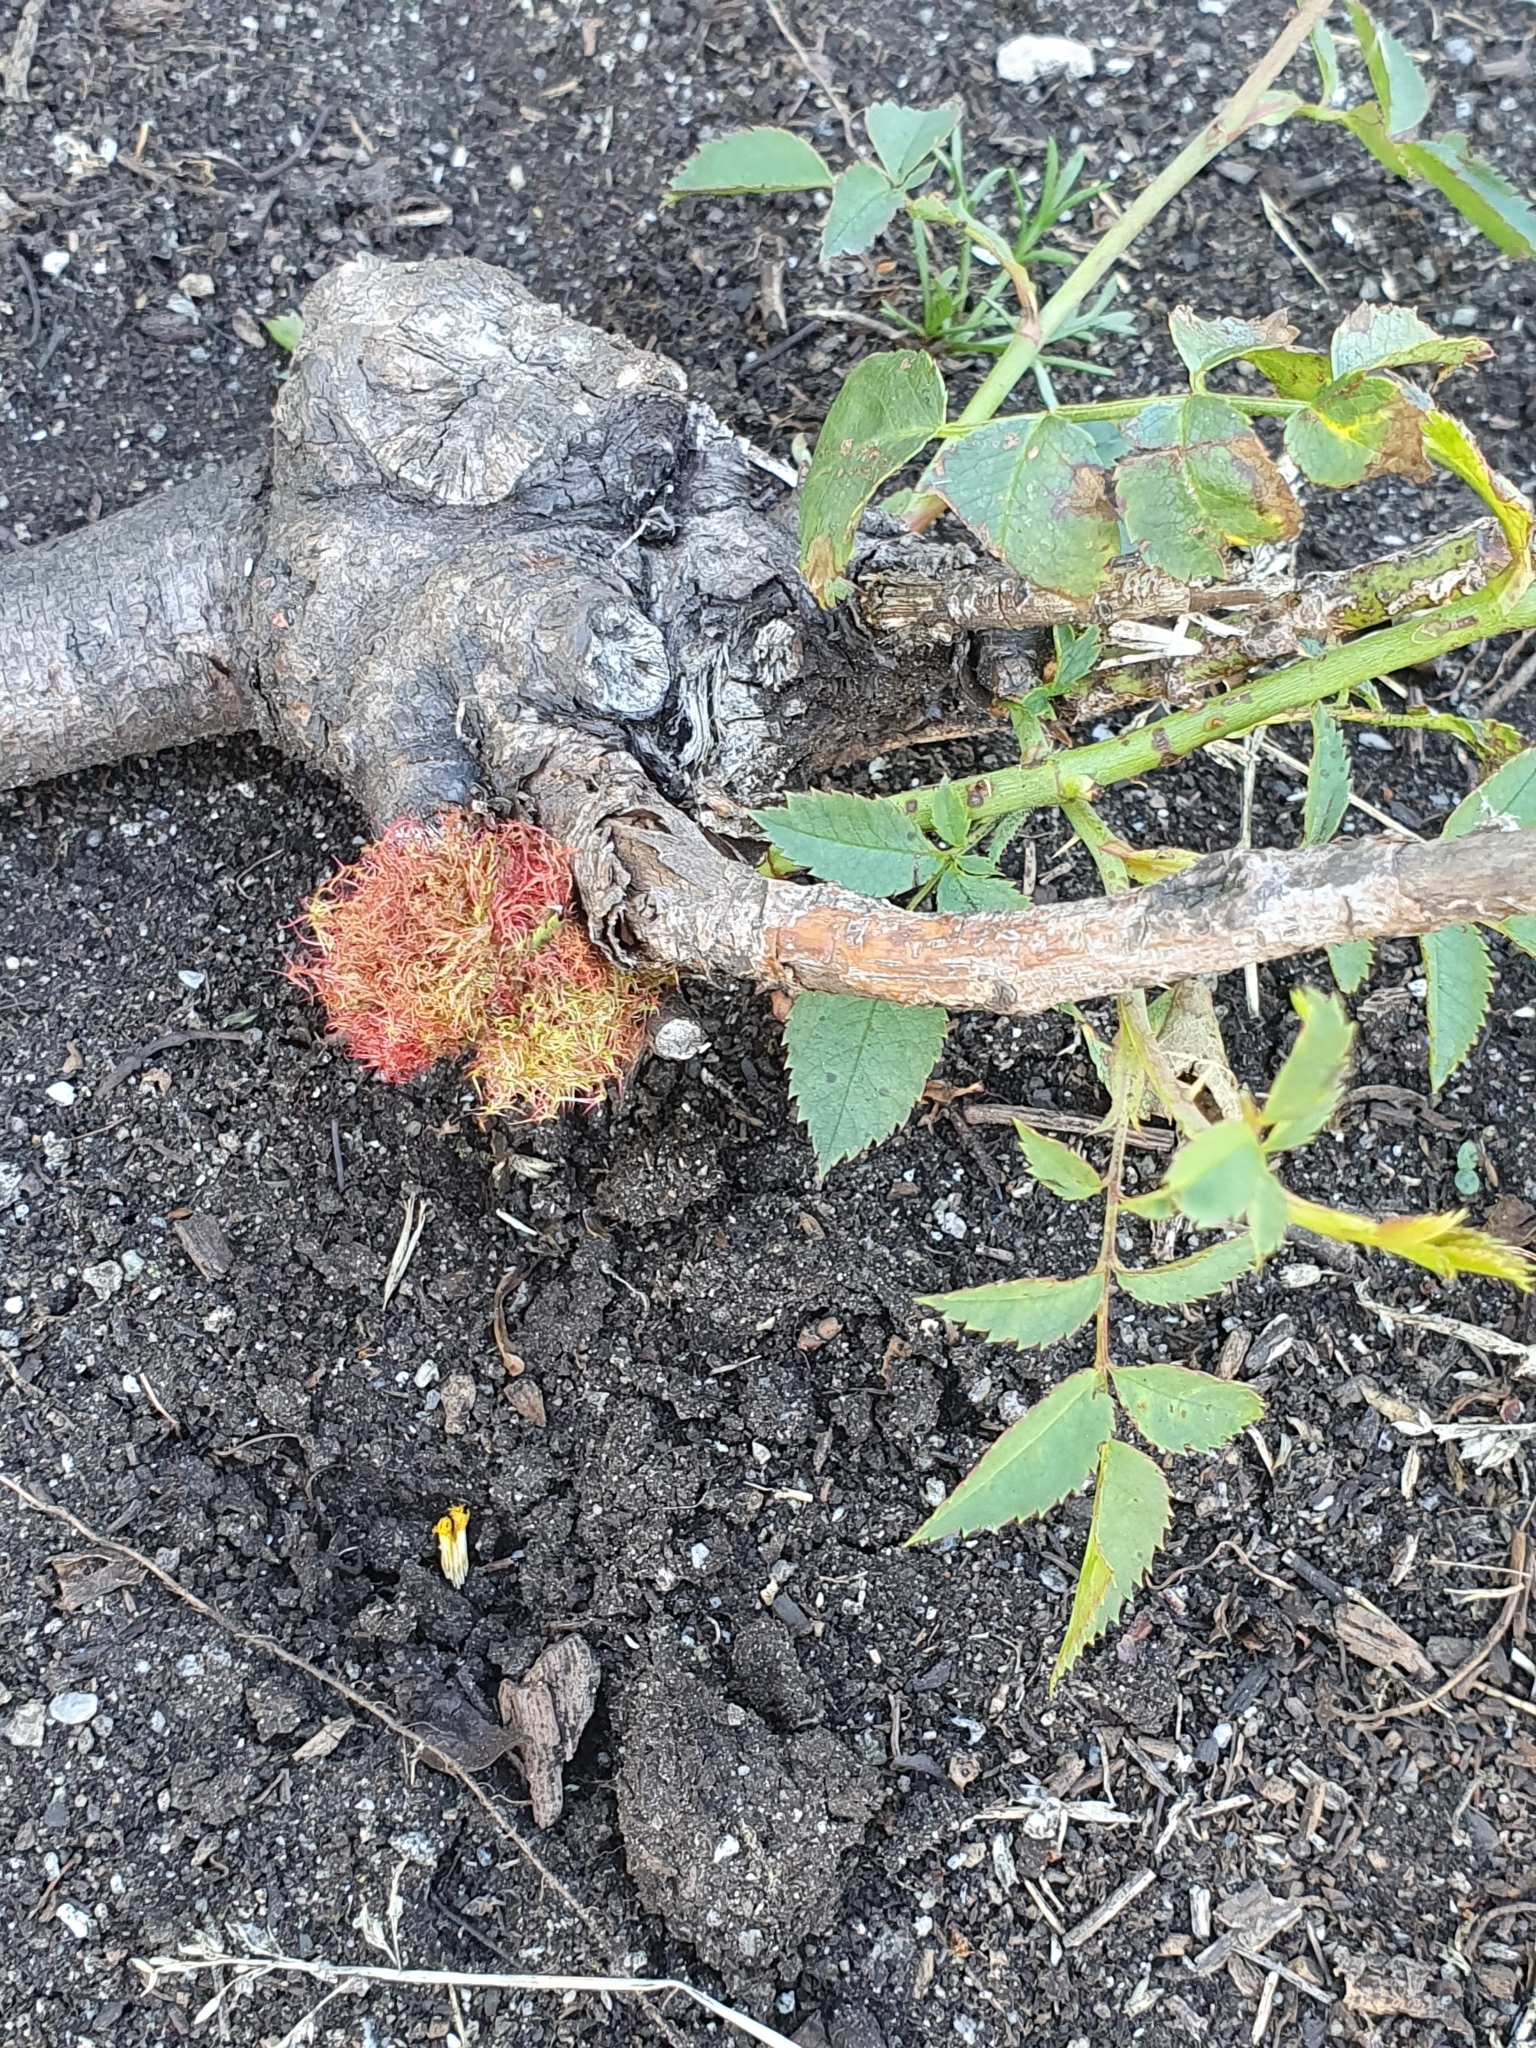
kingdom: Animalia
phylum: Arthropoda
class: Insecta
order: Hymenoptera
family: Cynipidae
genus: Diplolepis
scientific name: Diplolepis rosae
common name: Bedeguar gall
